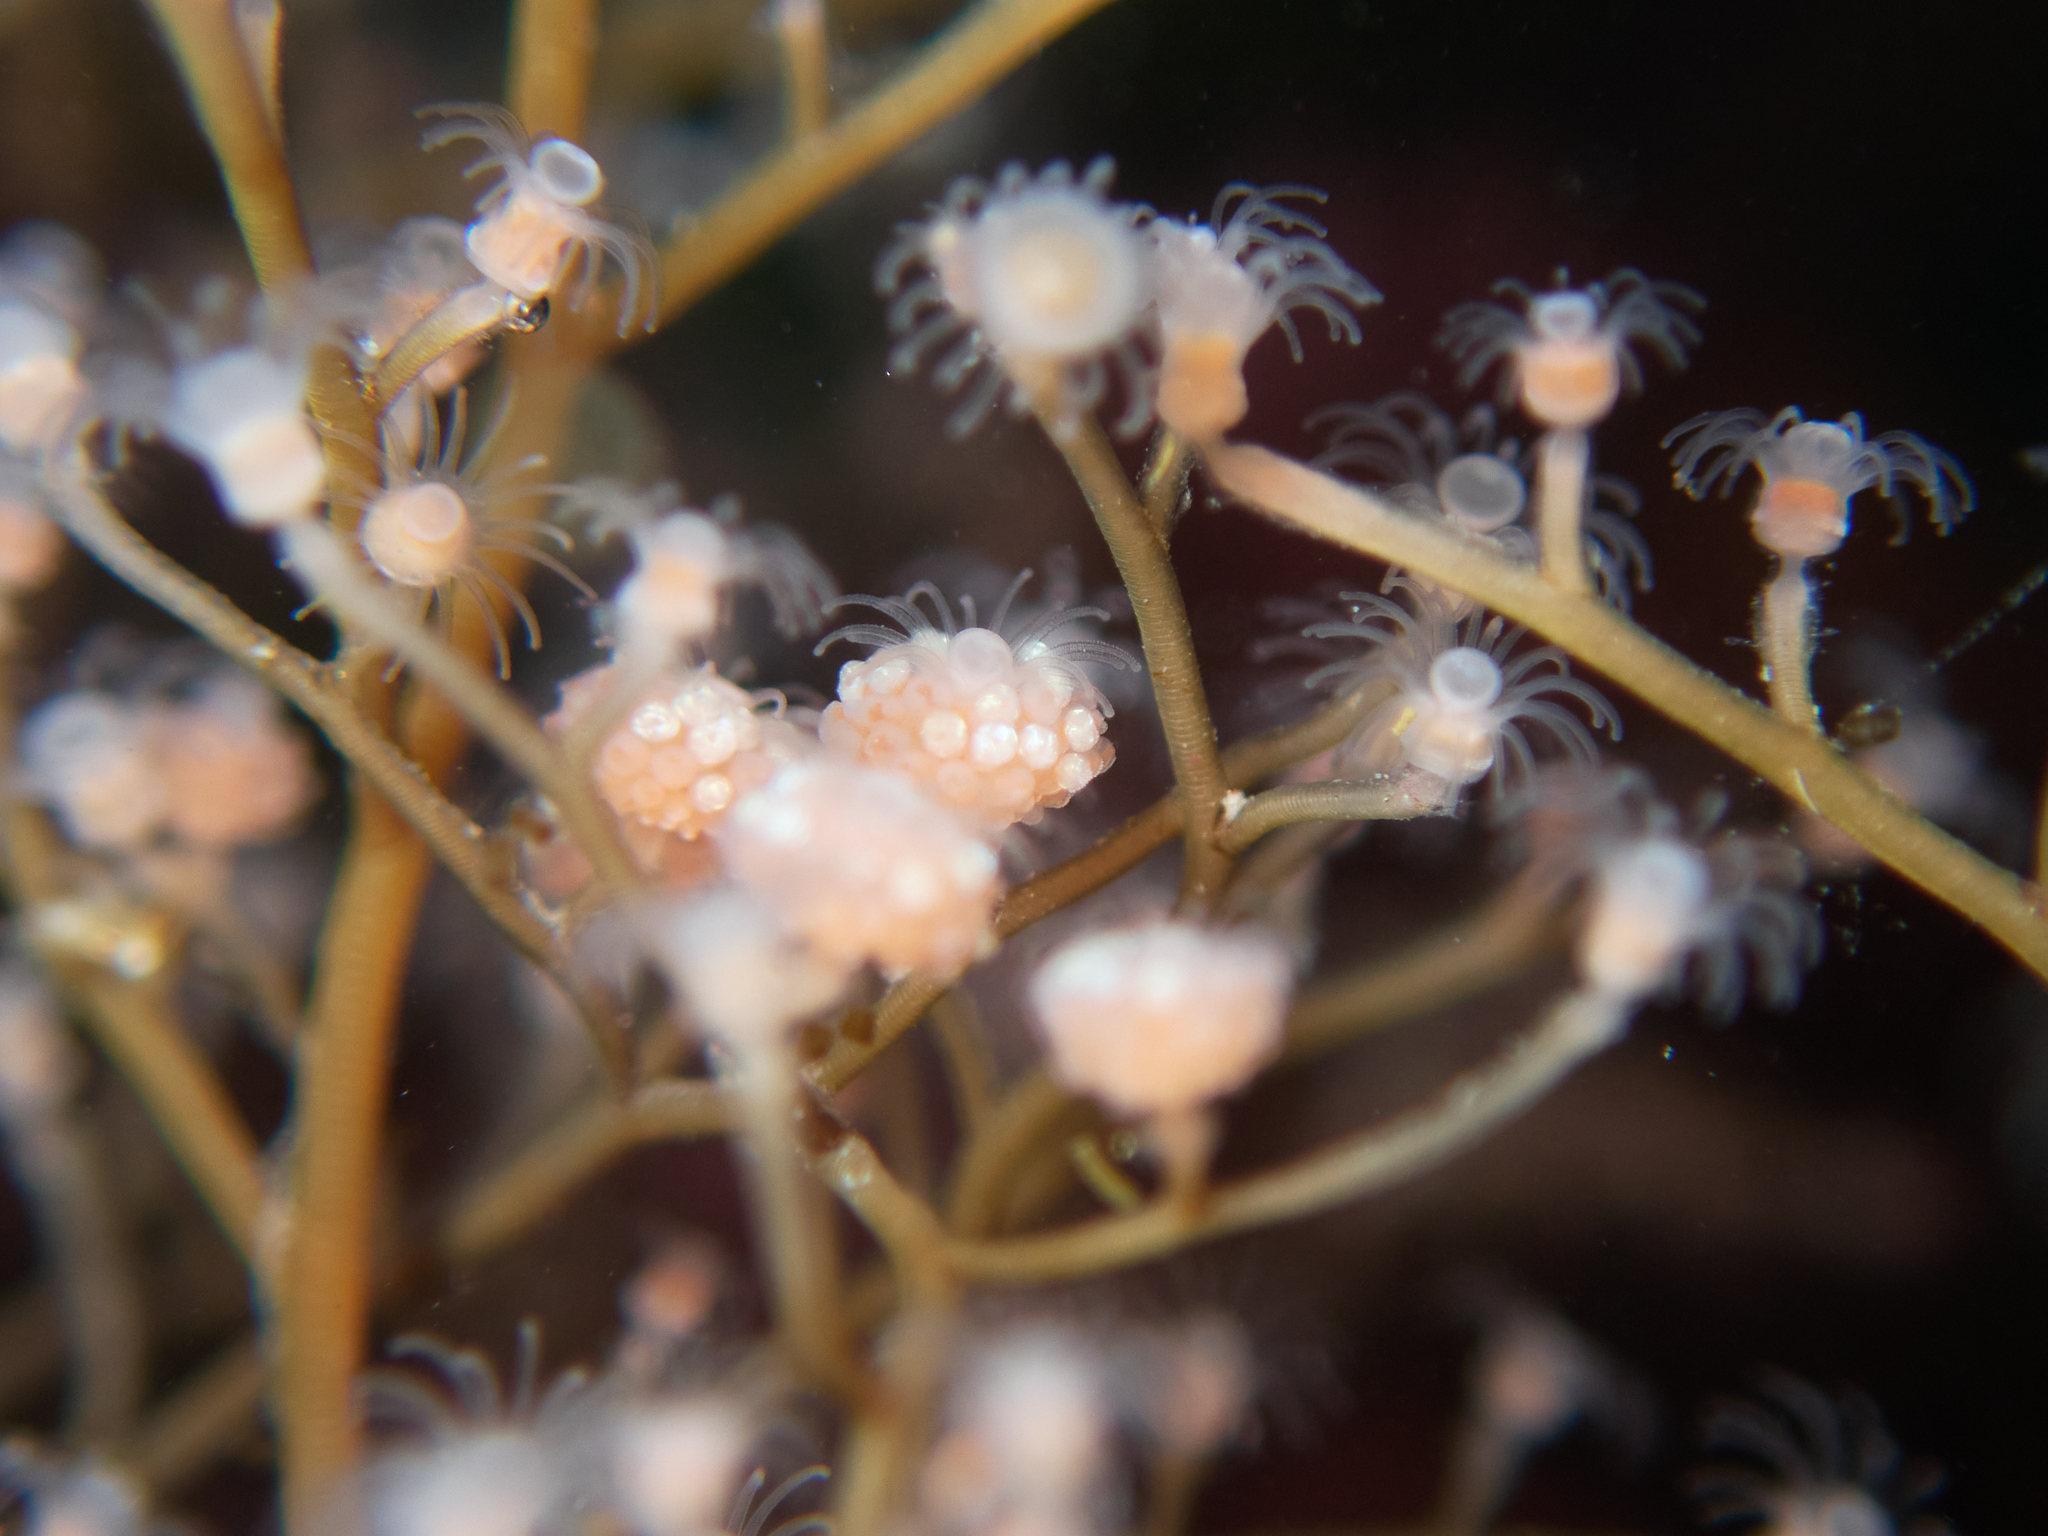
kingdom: Animalia
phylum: Cnidaria
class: Hydrozoa
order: Anthoathecata
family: Eudendriidae
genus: Eudendrium
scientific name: Eudendrium californicum
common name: California stickhydroid
